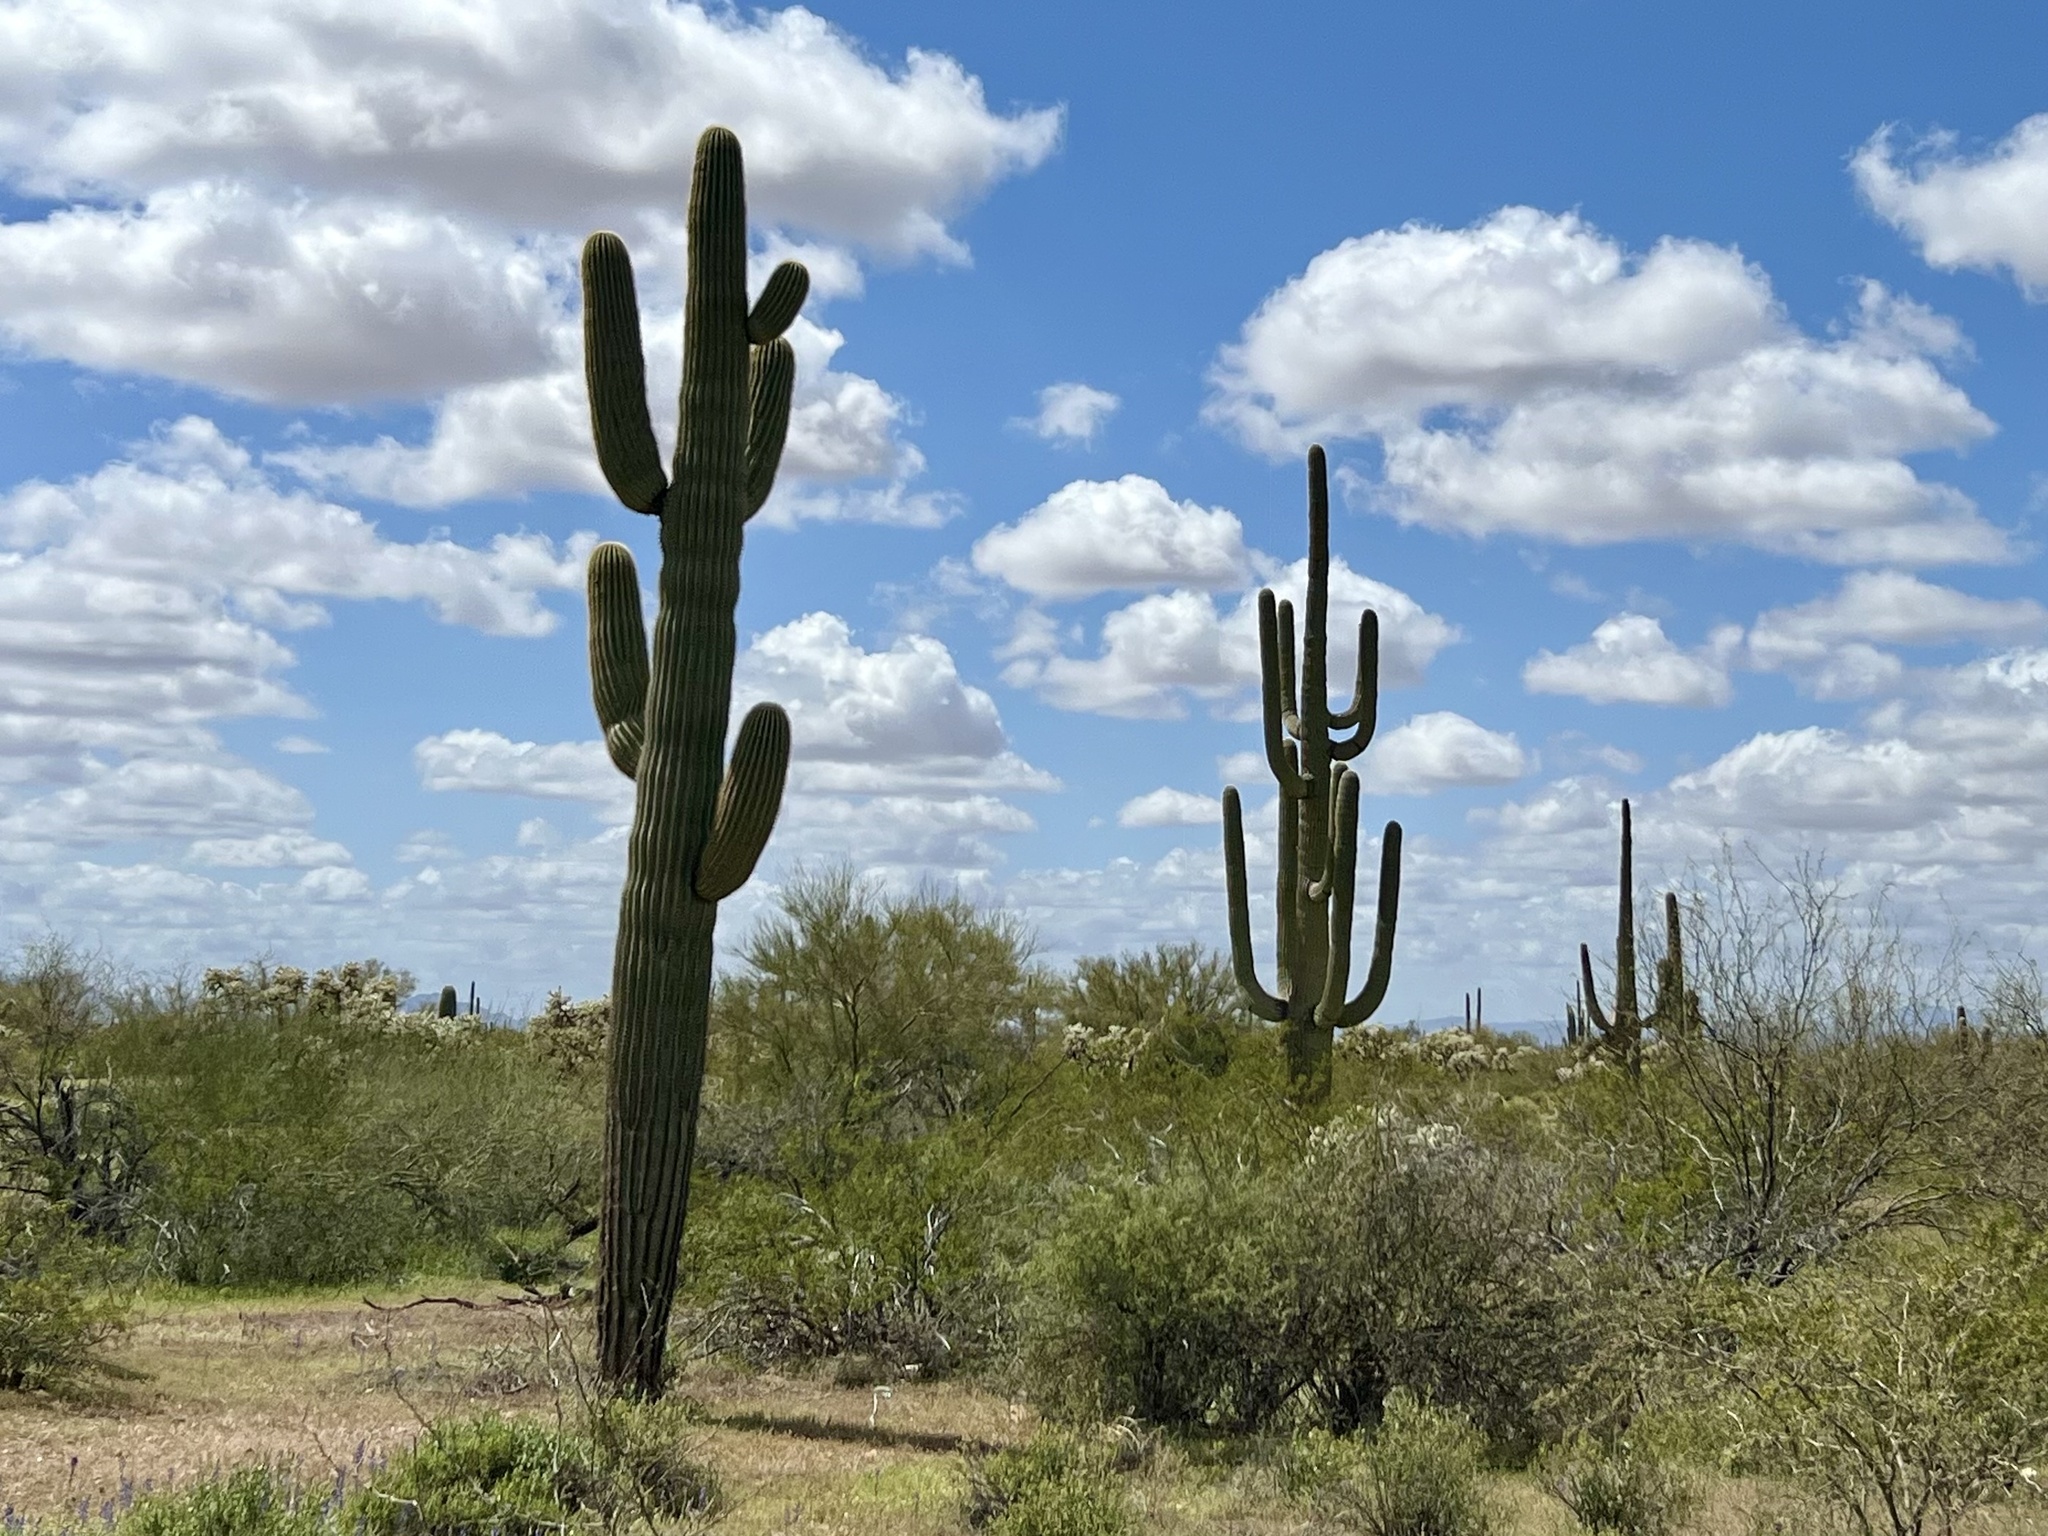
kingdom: Plantae
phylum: Tracheophyta
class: Magnoliopsida
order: Caryophyllales
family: Cactaceae
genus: Carnegiea
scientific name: Carnegiea gigantea
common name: Saguaro
